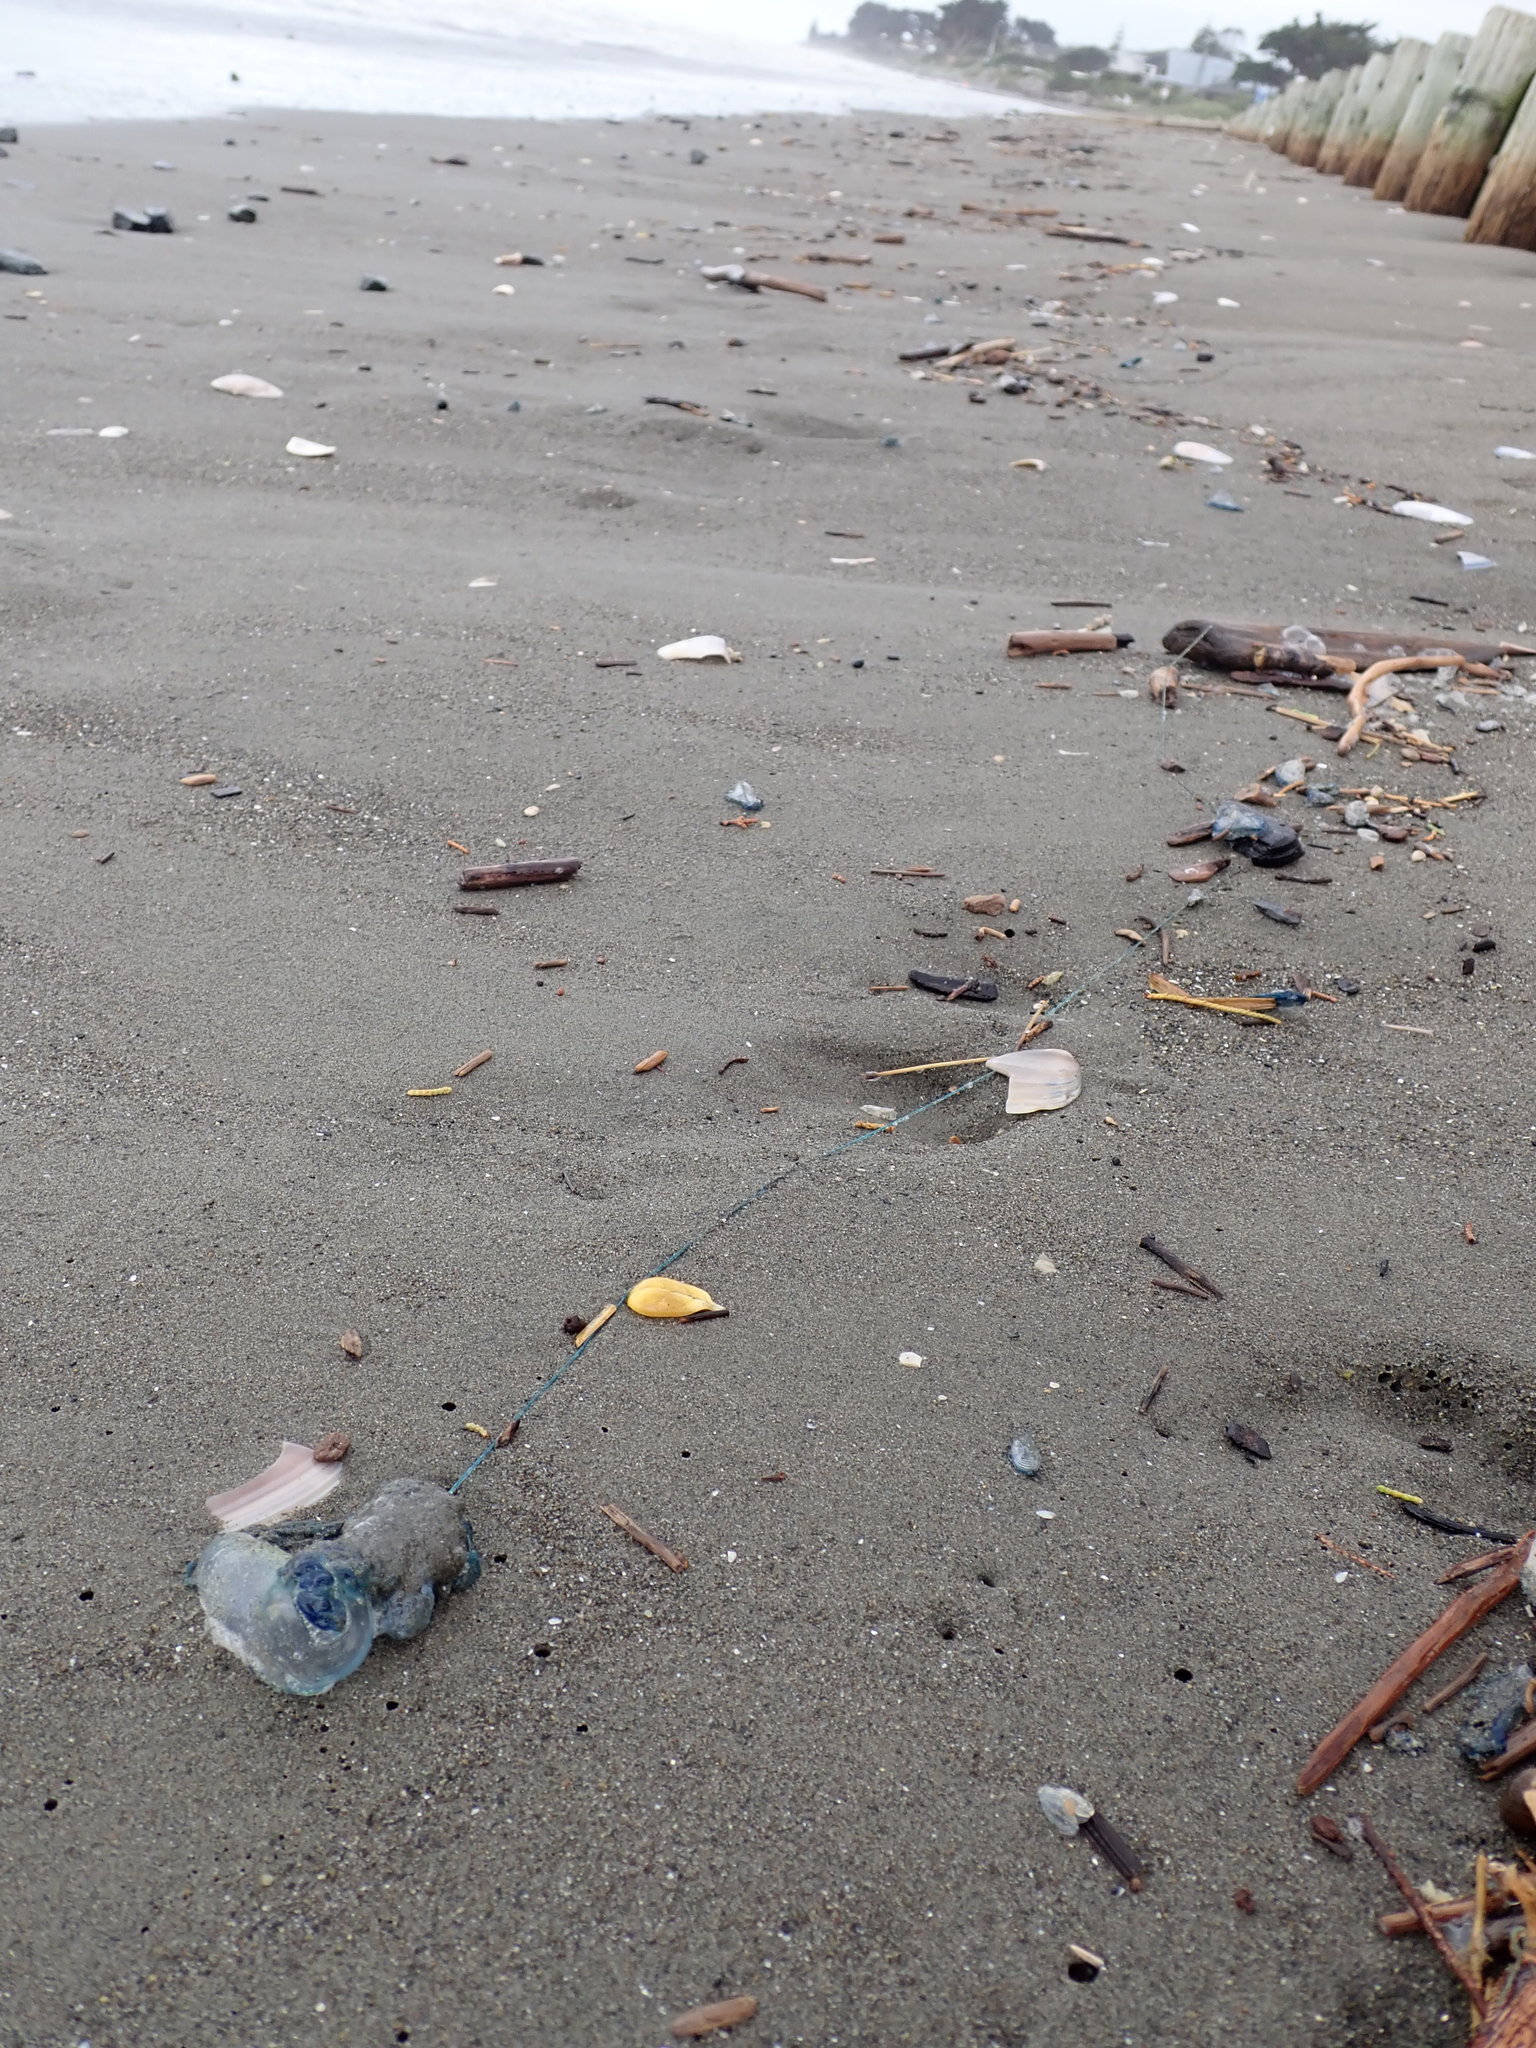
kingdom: Animalia
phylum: Cnidaria
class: Hydrozoa
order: Siphonophorae
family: Physaliidae
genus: Physalia
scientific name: Physalia physalis
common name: Portuguese man-of-war
